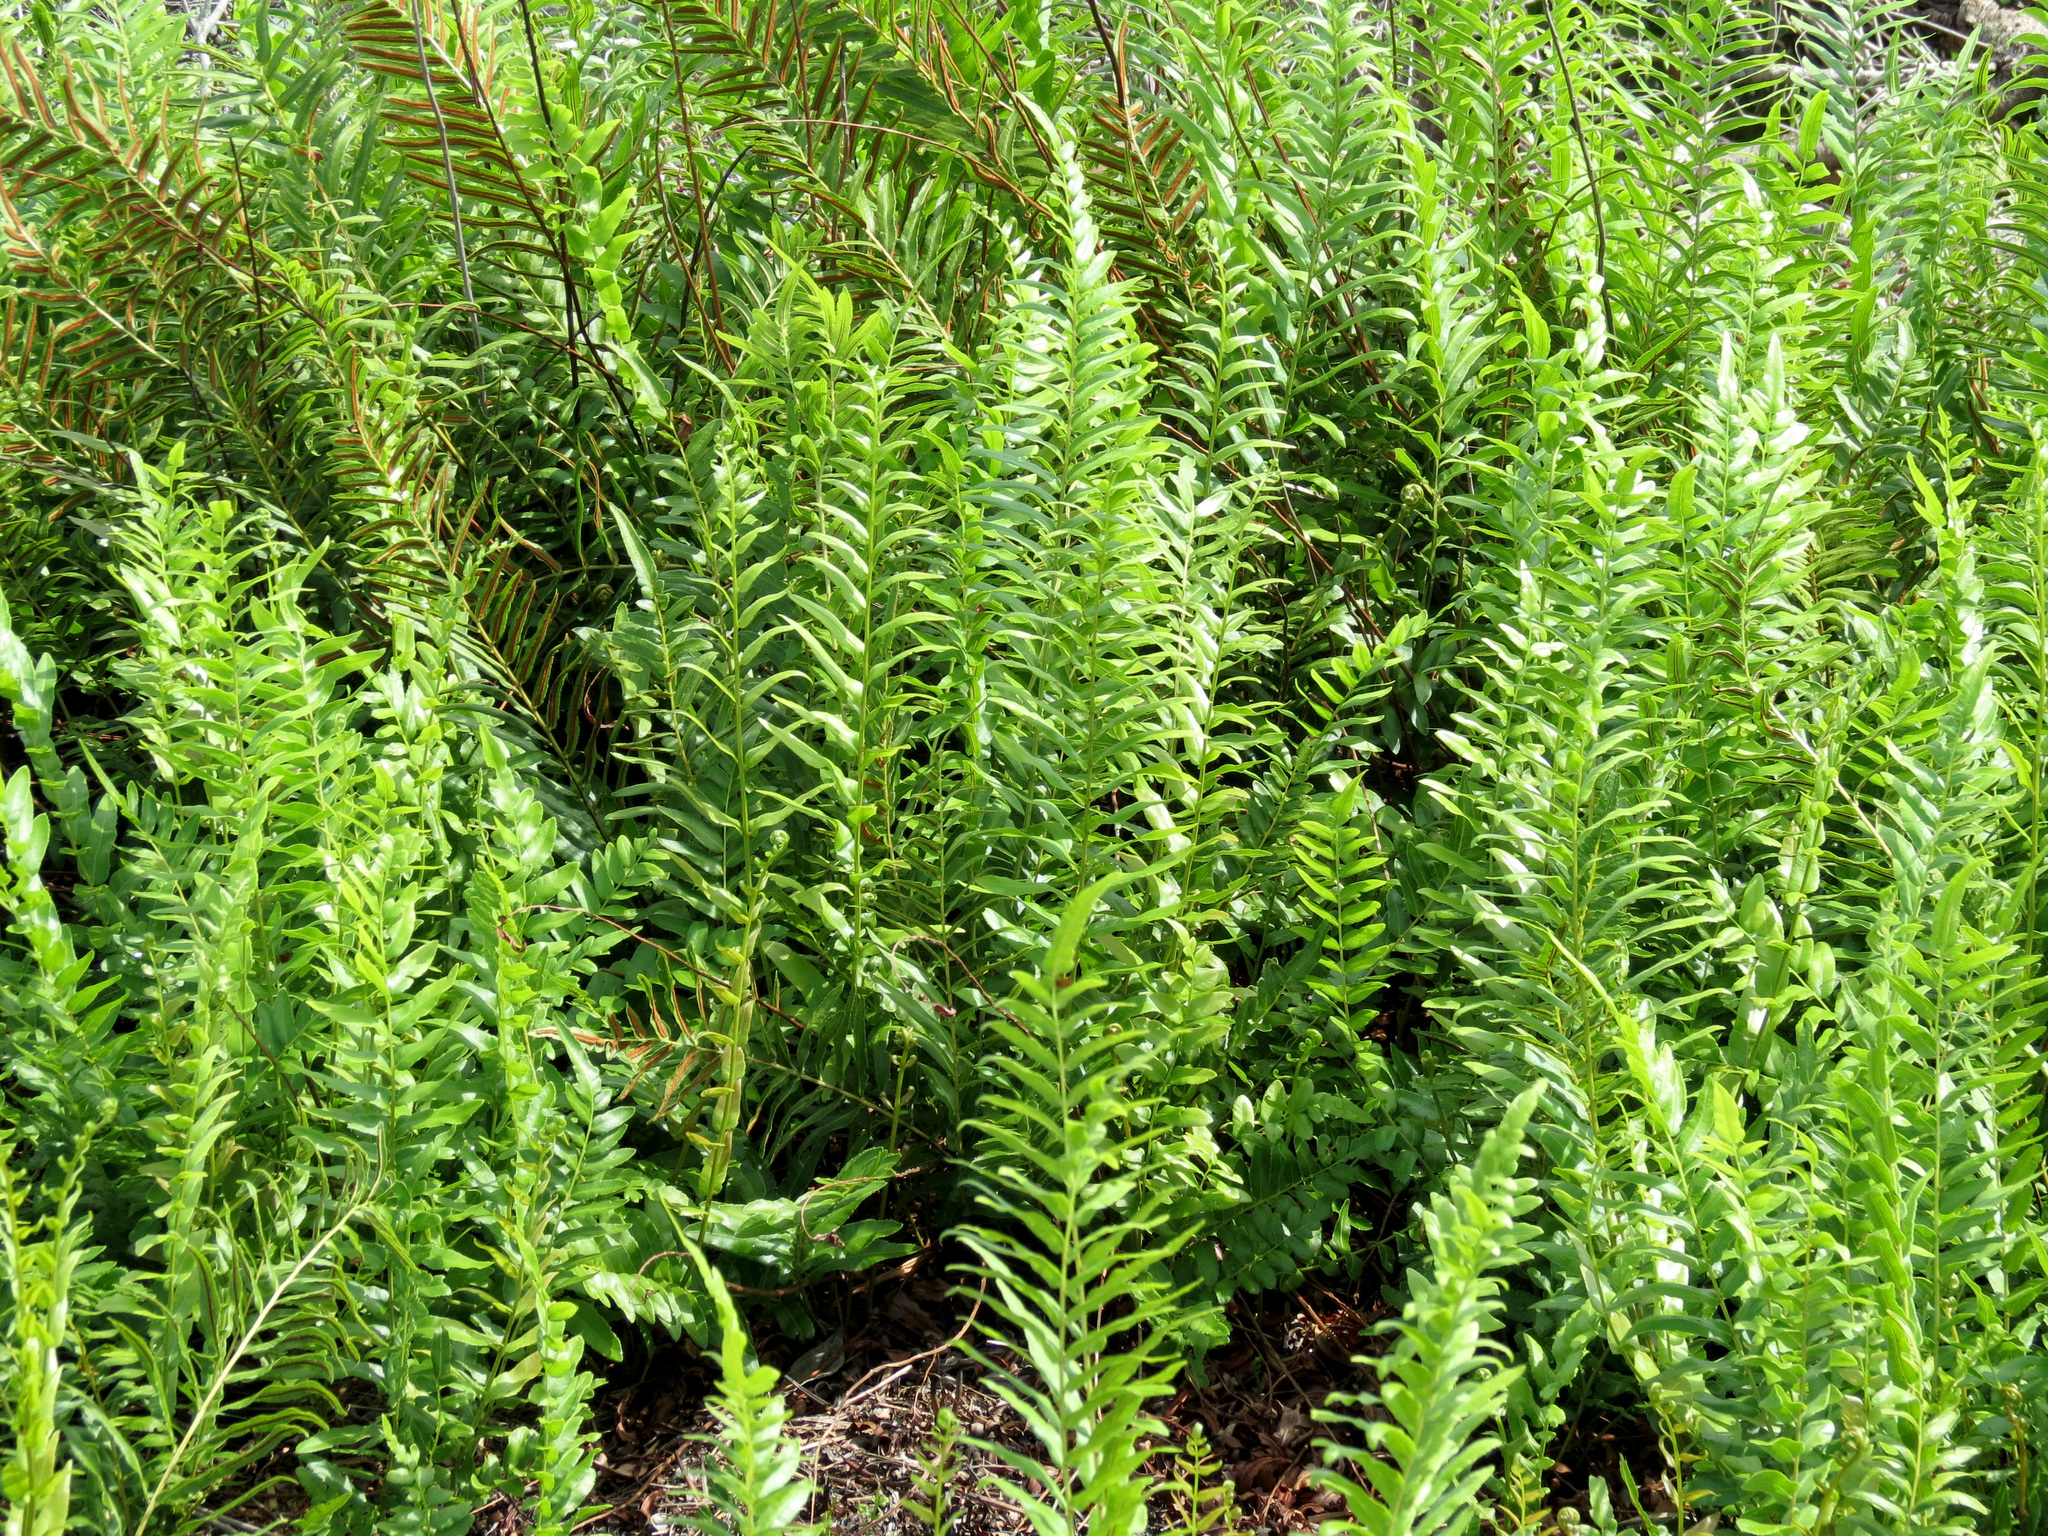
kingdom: Plantae
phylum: Tracheophyta
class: Polypodiopsida
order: Polypodiales
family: Blechnaceae
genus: Telmatoblechnum
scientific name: Telmatoblechnum serrulatum
